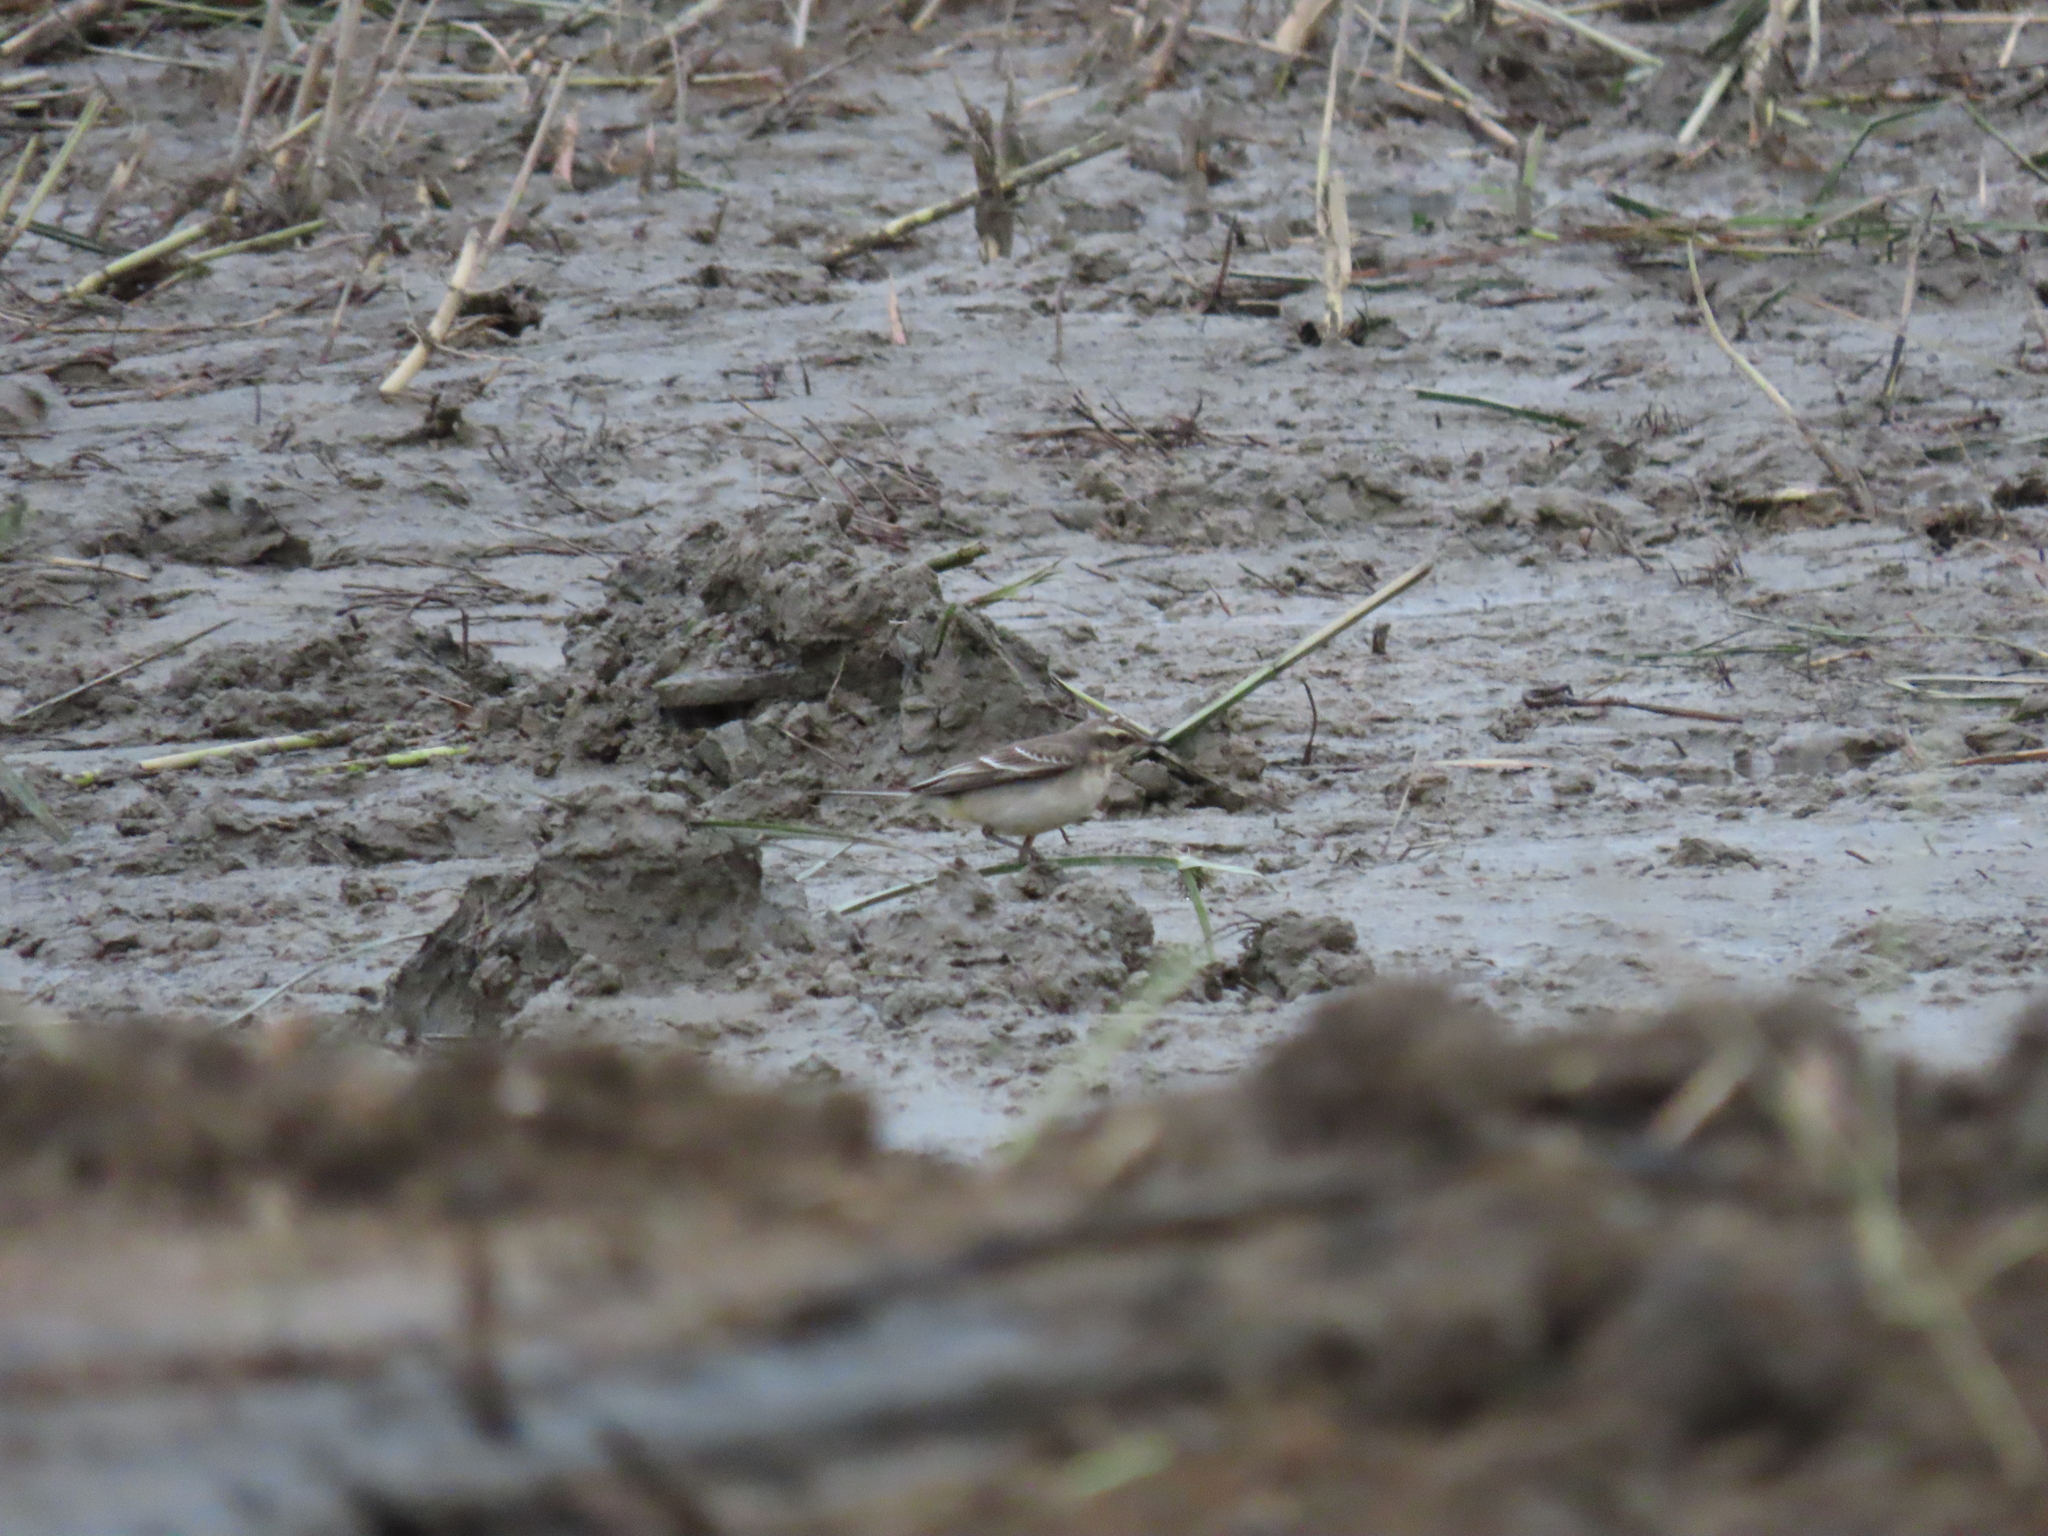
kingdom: Animalia
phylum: Chordata
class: Aves
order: Passeriformes
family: Motacillidae
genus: Motacilla
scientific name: Motacilla tschutschensis
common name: Eastern yellow wagtail
